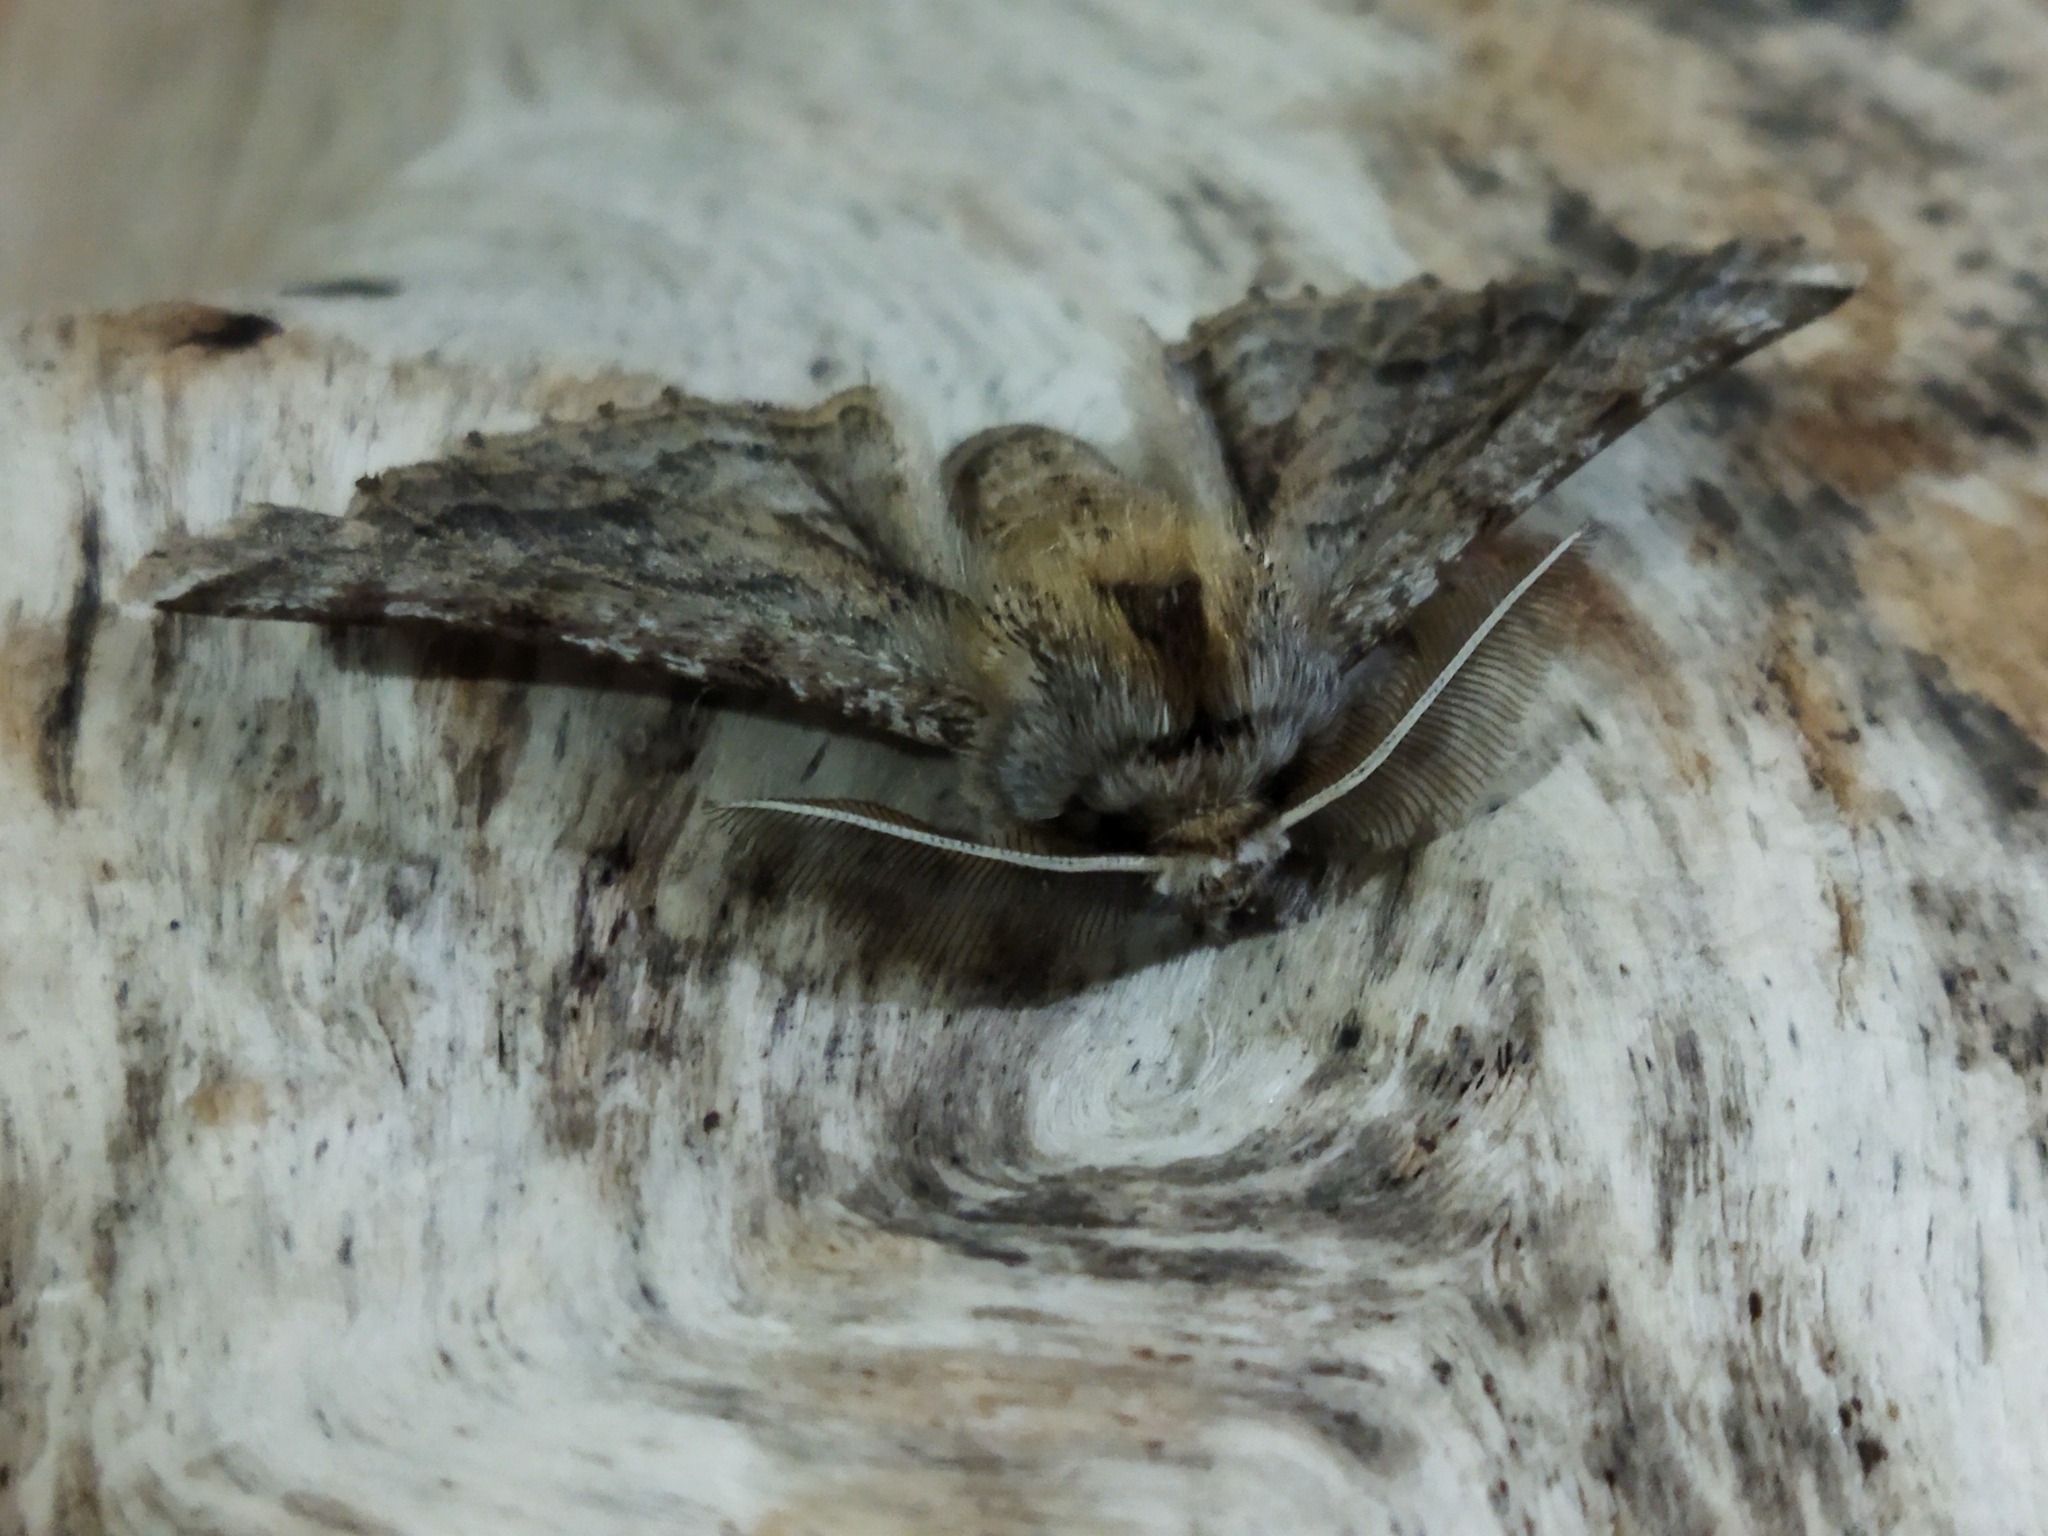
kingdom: Animalia
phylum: Arthropoda
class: Insecta
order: Lepidoptera
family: Geometridae
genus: Apochima
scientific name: Apochima flabellaria
